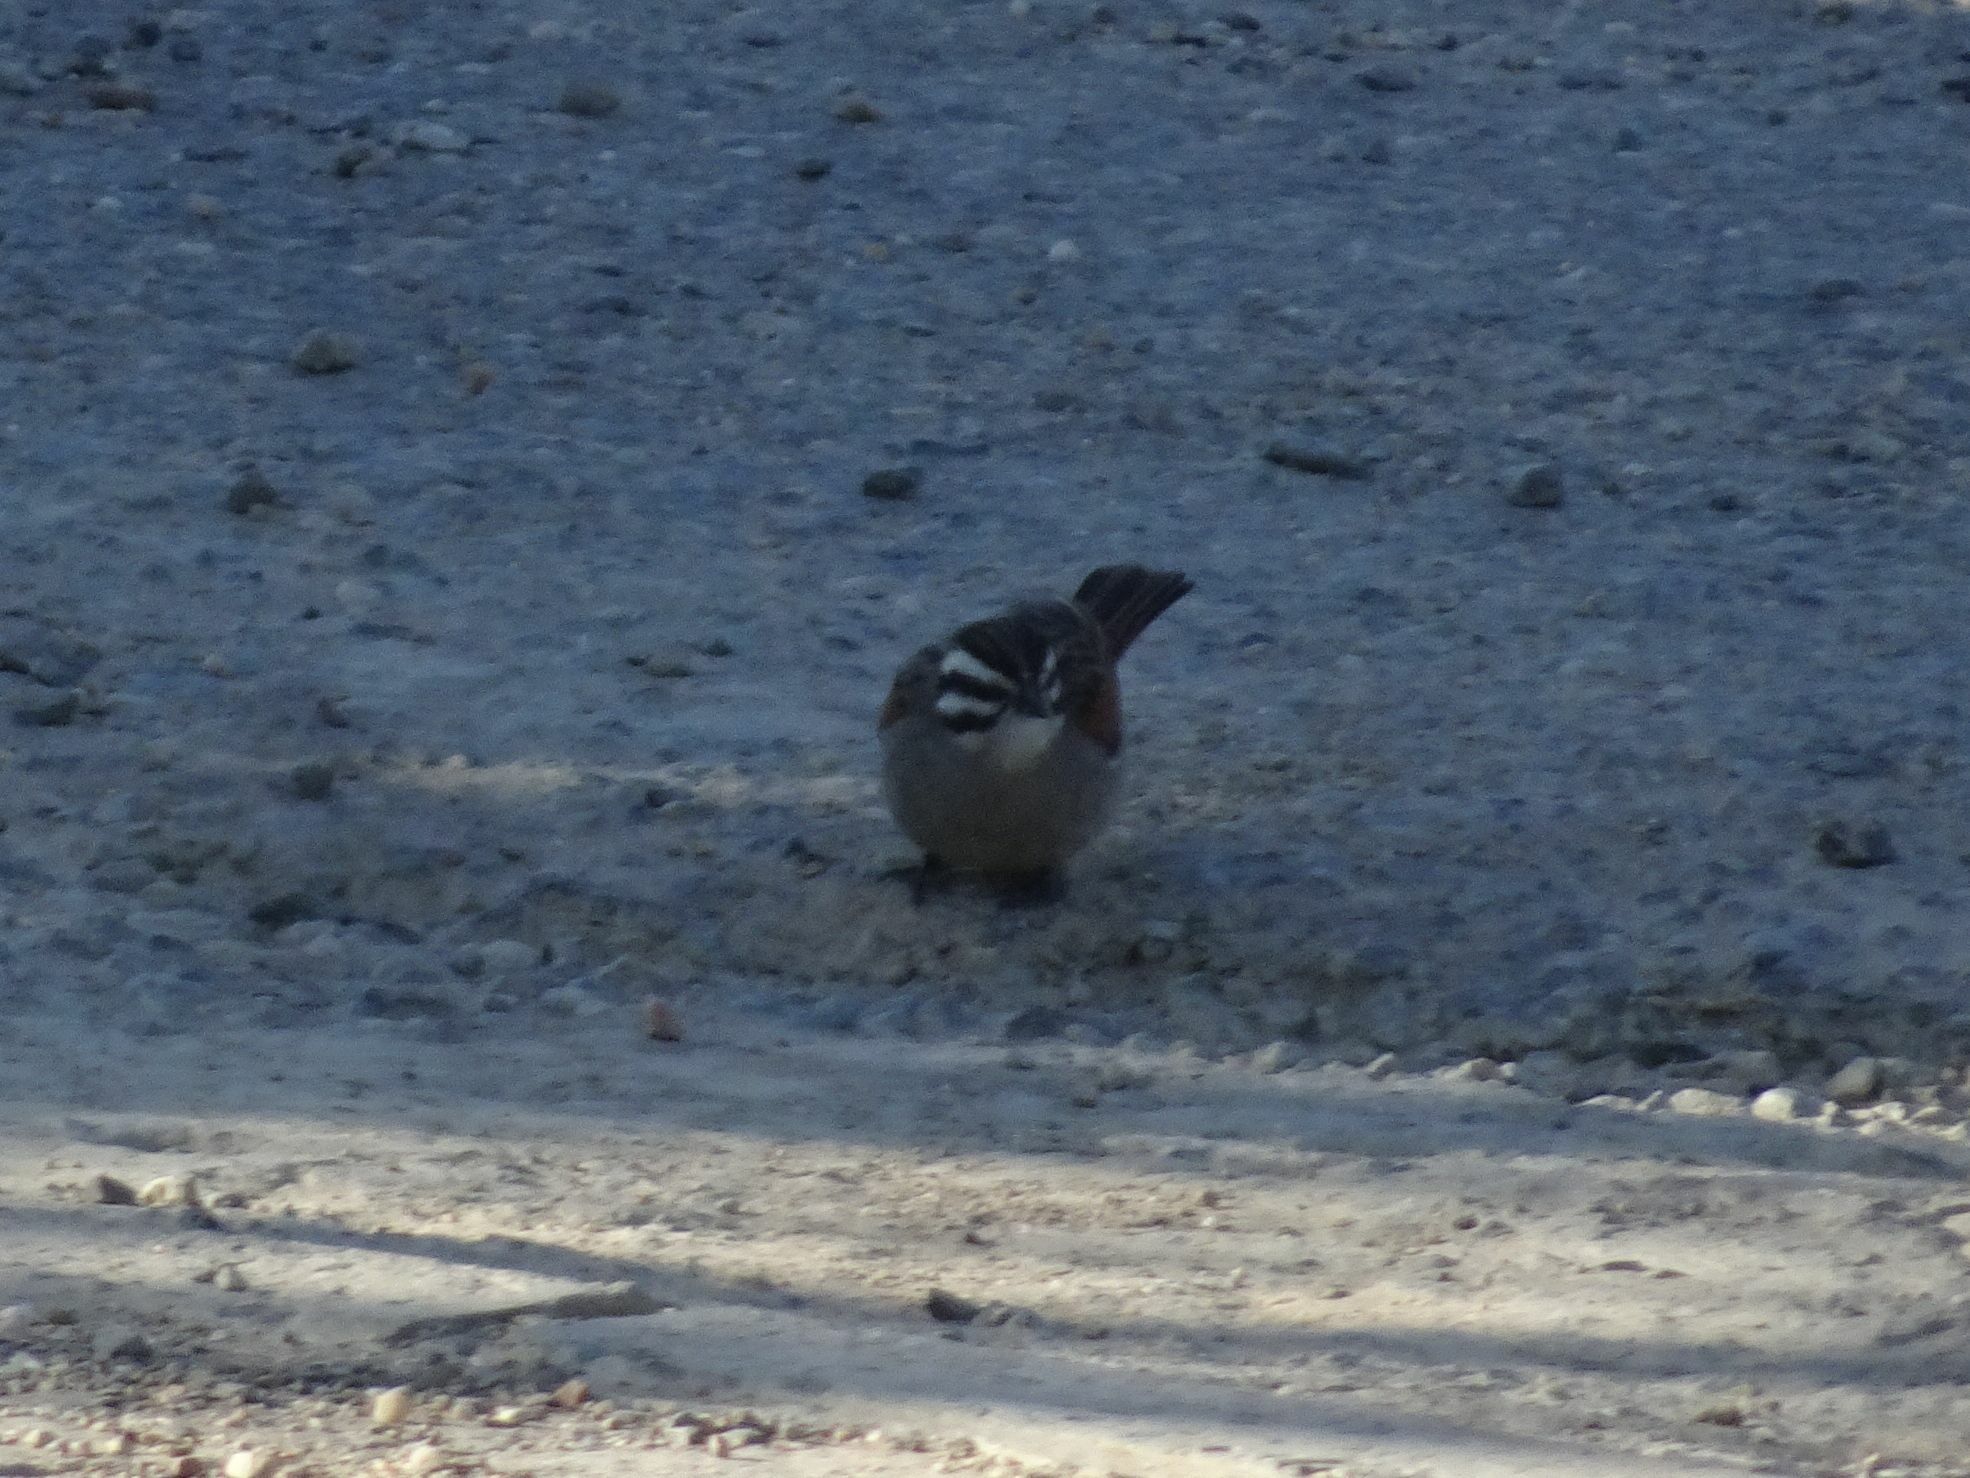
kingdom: Animalia
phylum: Chordata
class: Aves
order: Passeriformes
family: Emberizidae
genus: Emberiza
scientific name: Emberiza capensis
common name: Cape bunting
